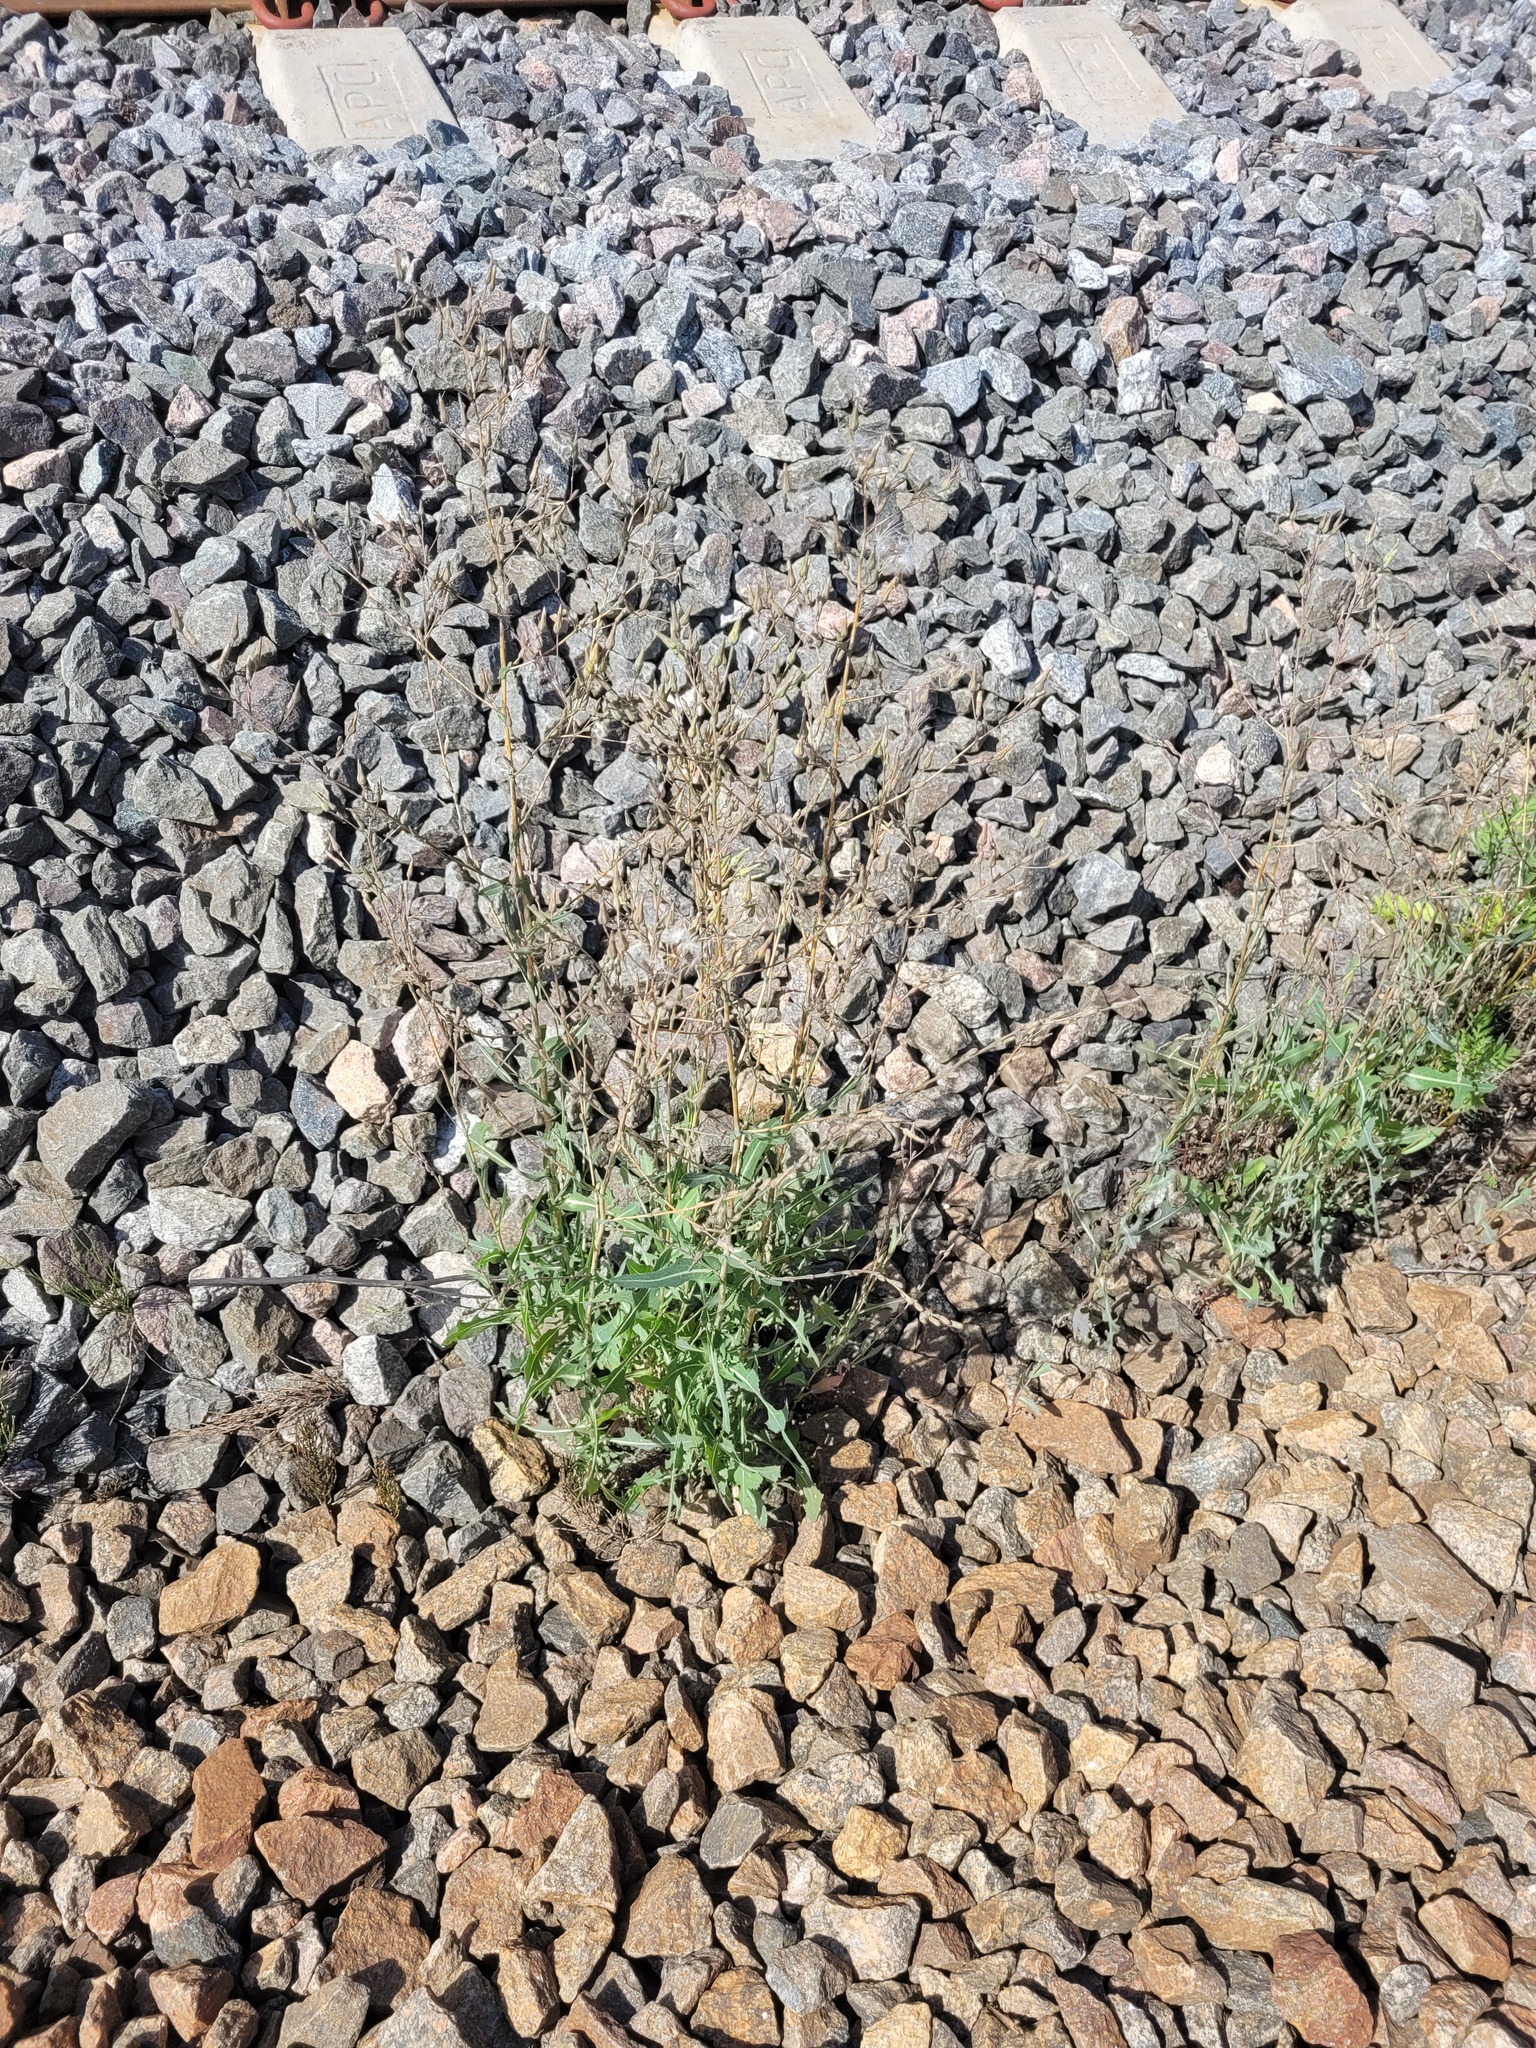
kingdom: Plantae
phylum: Tracheophyta
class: Magnoliopsida
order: Asterales
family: Asteraceae
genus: Lactuca
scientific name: Lactuca serriola
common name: Prickly lettuce
